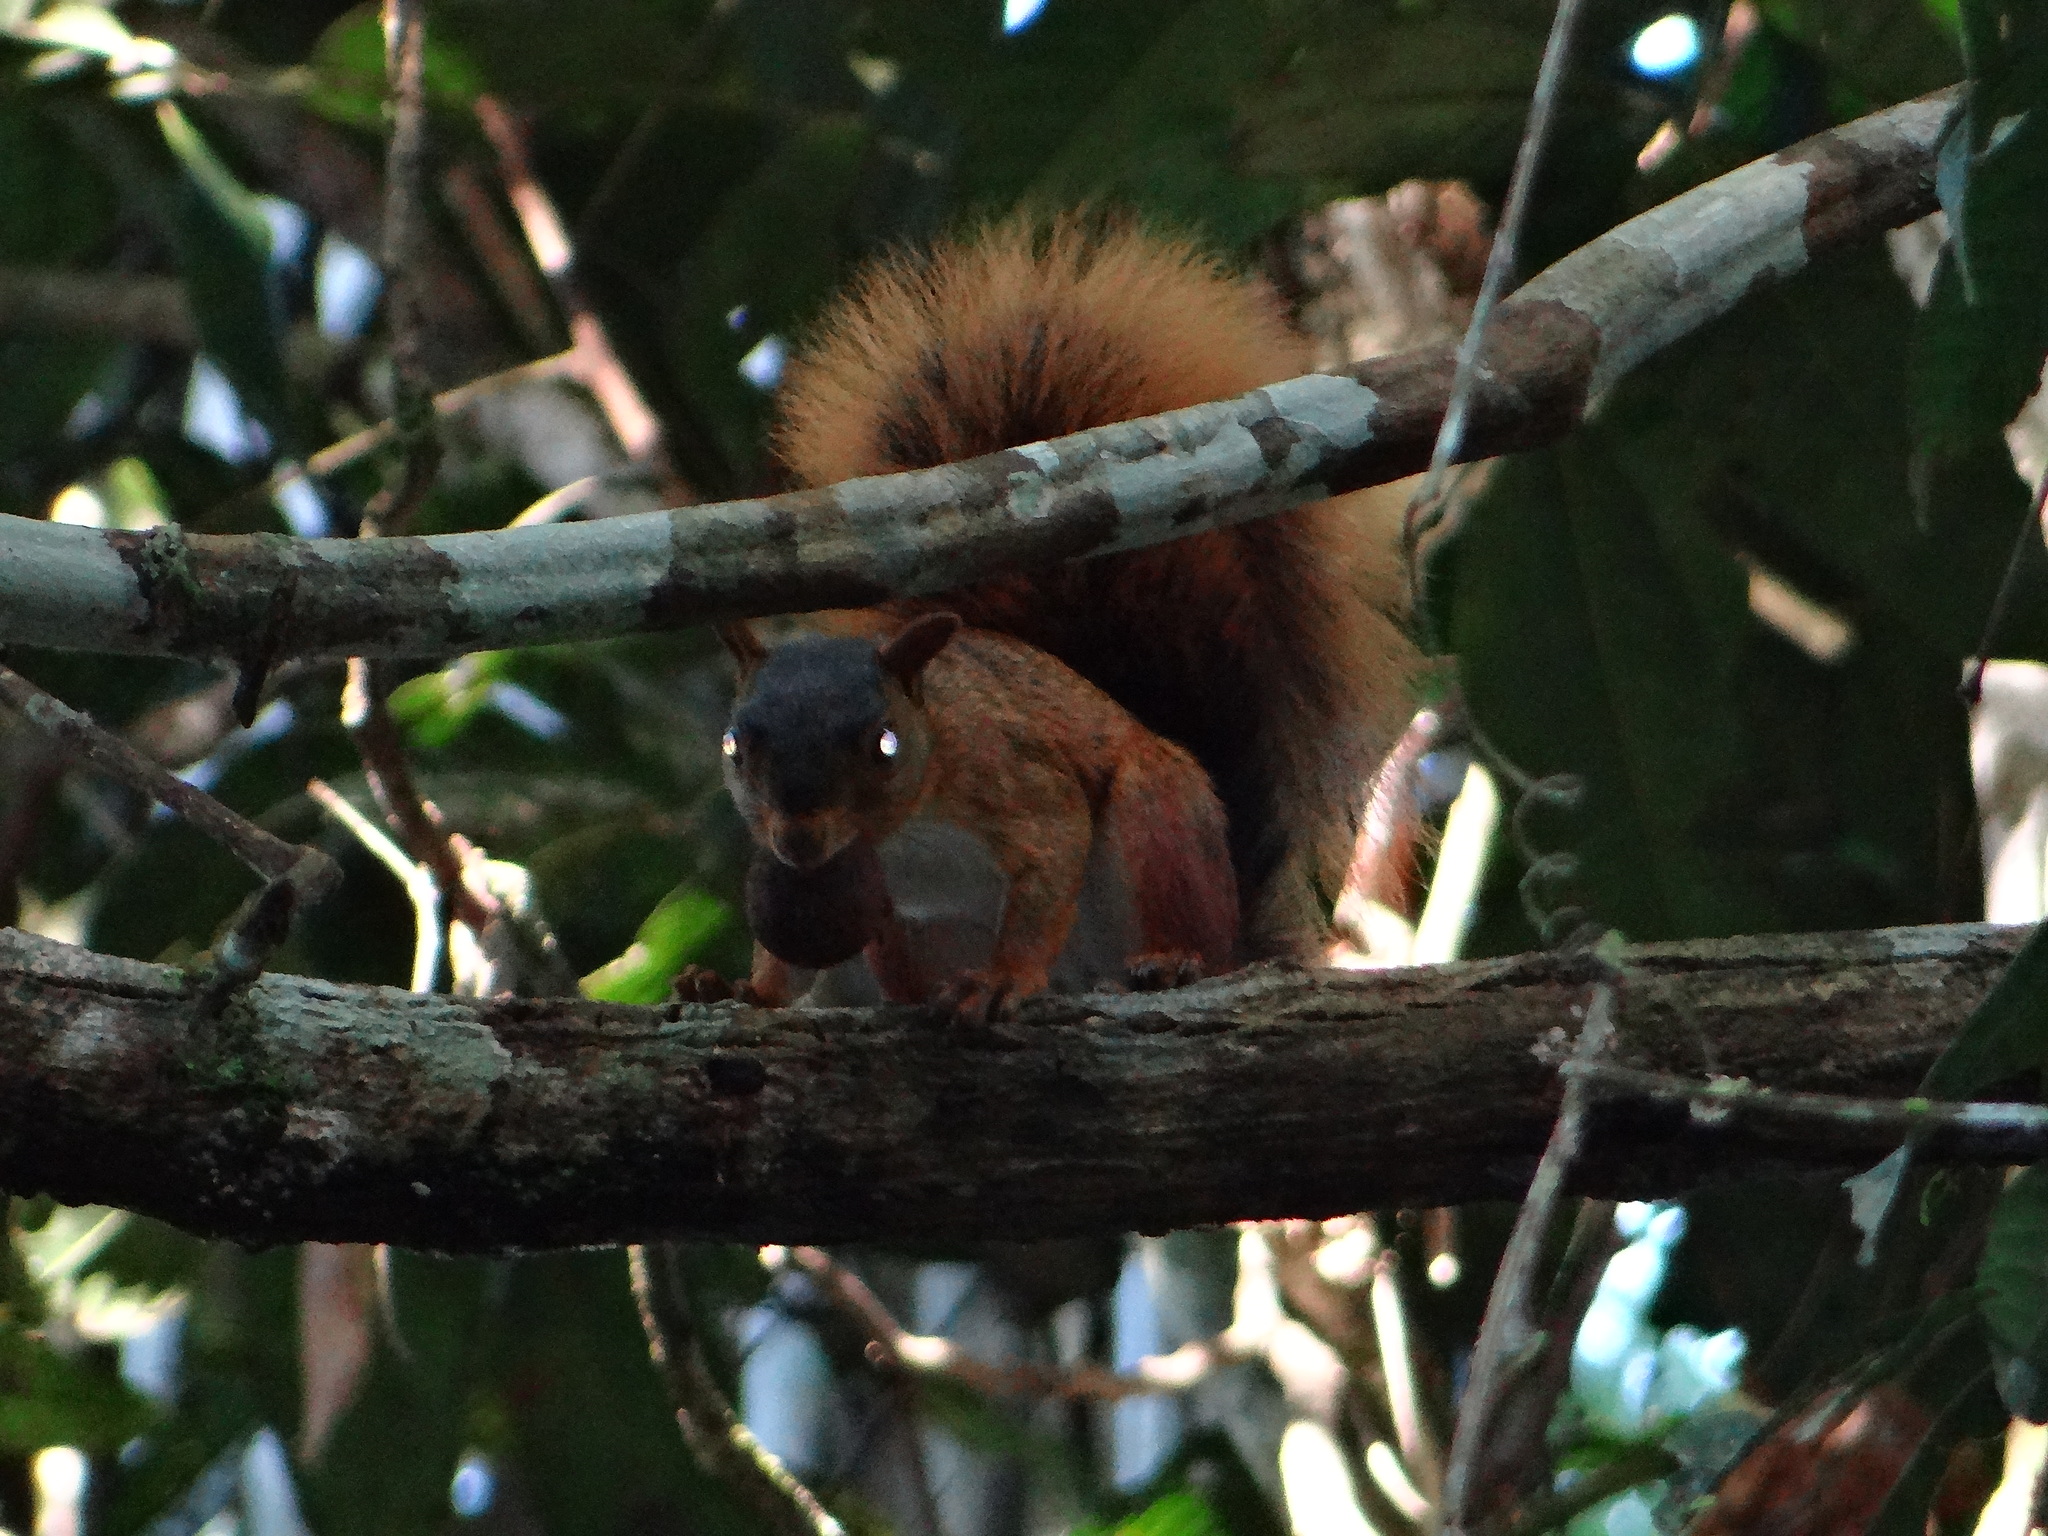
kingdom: Animalia
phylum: Chordata
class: Mammalia
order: Rodentia
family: Sciuridae
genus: Sciurus
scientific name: Sciurus spadiceus
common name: Southern amazon red squirrel
